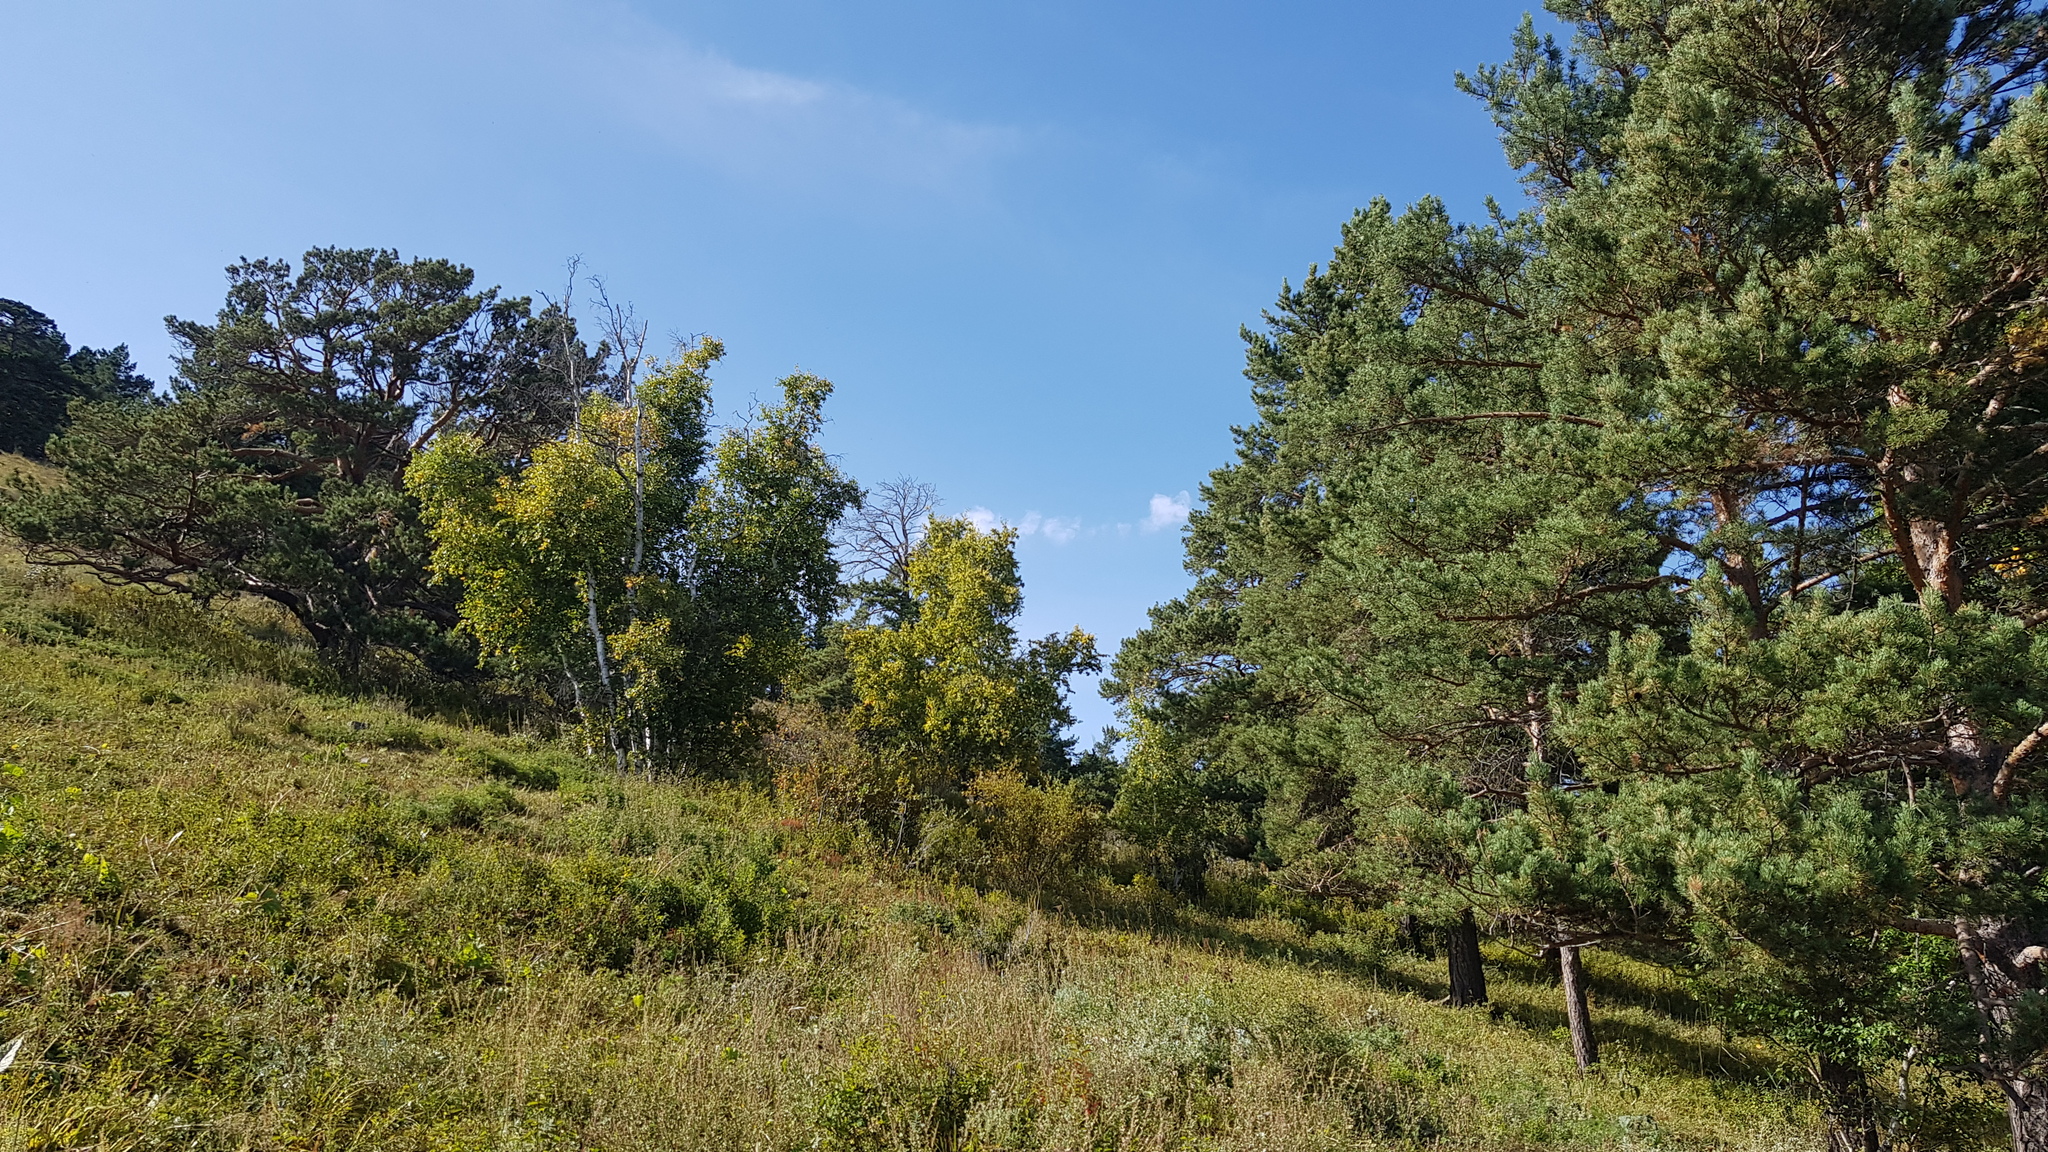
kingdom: Plantae
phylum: Tracheophyta
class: Pinopsida
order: Pinales
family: Pinaceae
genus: Pinus
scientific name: Pinus sylvestris
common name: Scots pine
